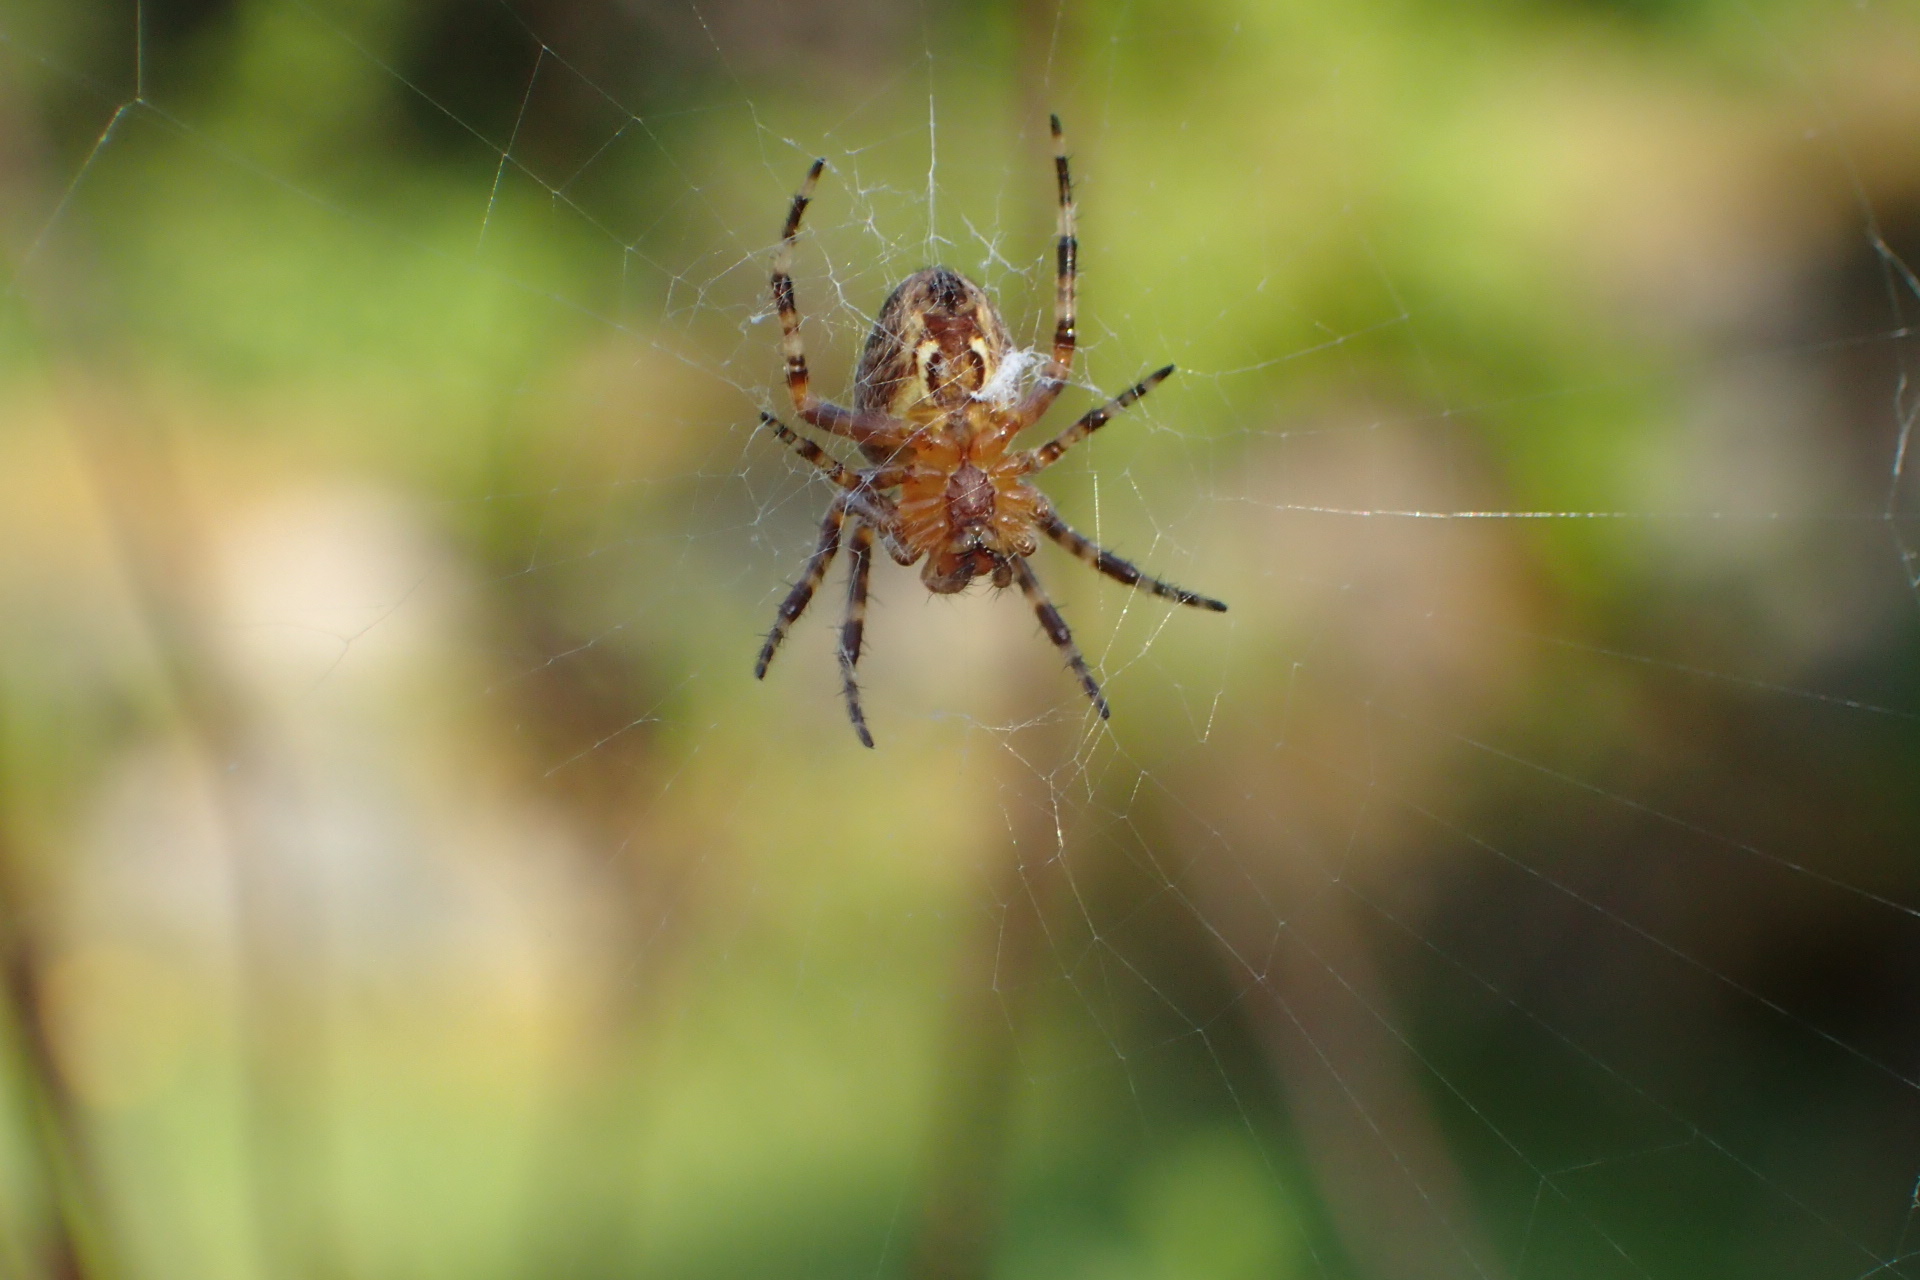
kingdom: Animalia
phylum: Arthropoda
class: Arachnida
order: Araneae
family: Araneidae
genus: Araneus
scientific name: Araneus diadematus
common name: Cross orbweaver
